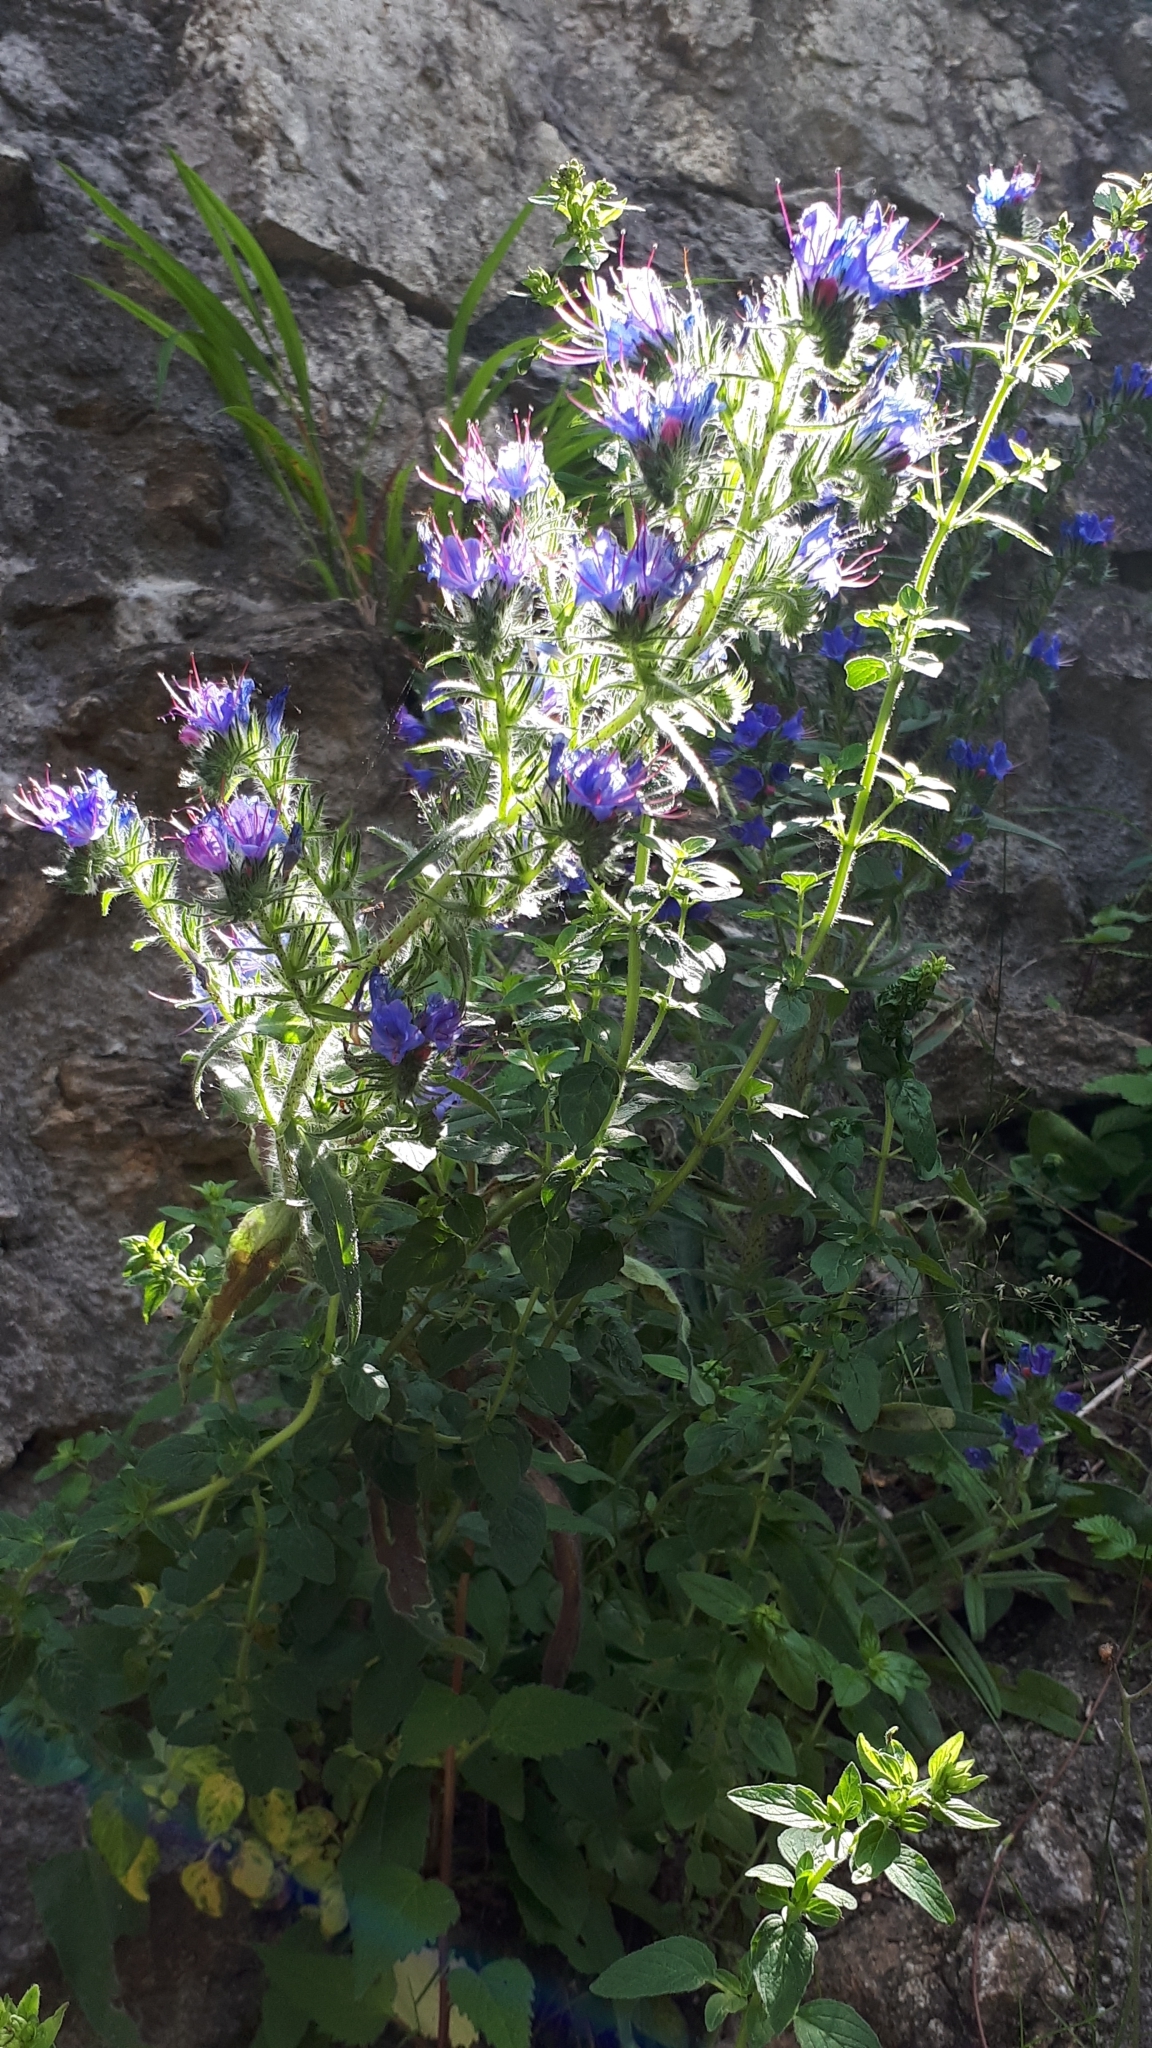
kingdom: Plantae
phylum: Tracheophyta
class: Magnoliopsida
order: Boraginales
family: Boraginaceae
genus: Echium
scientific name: Echium vulgare
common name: Common viper's bugloss
